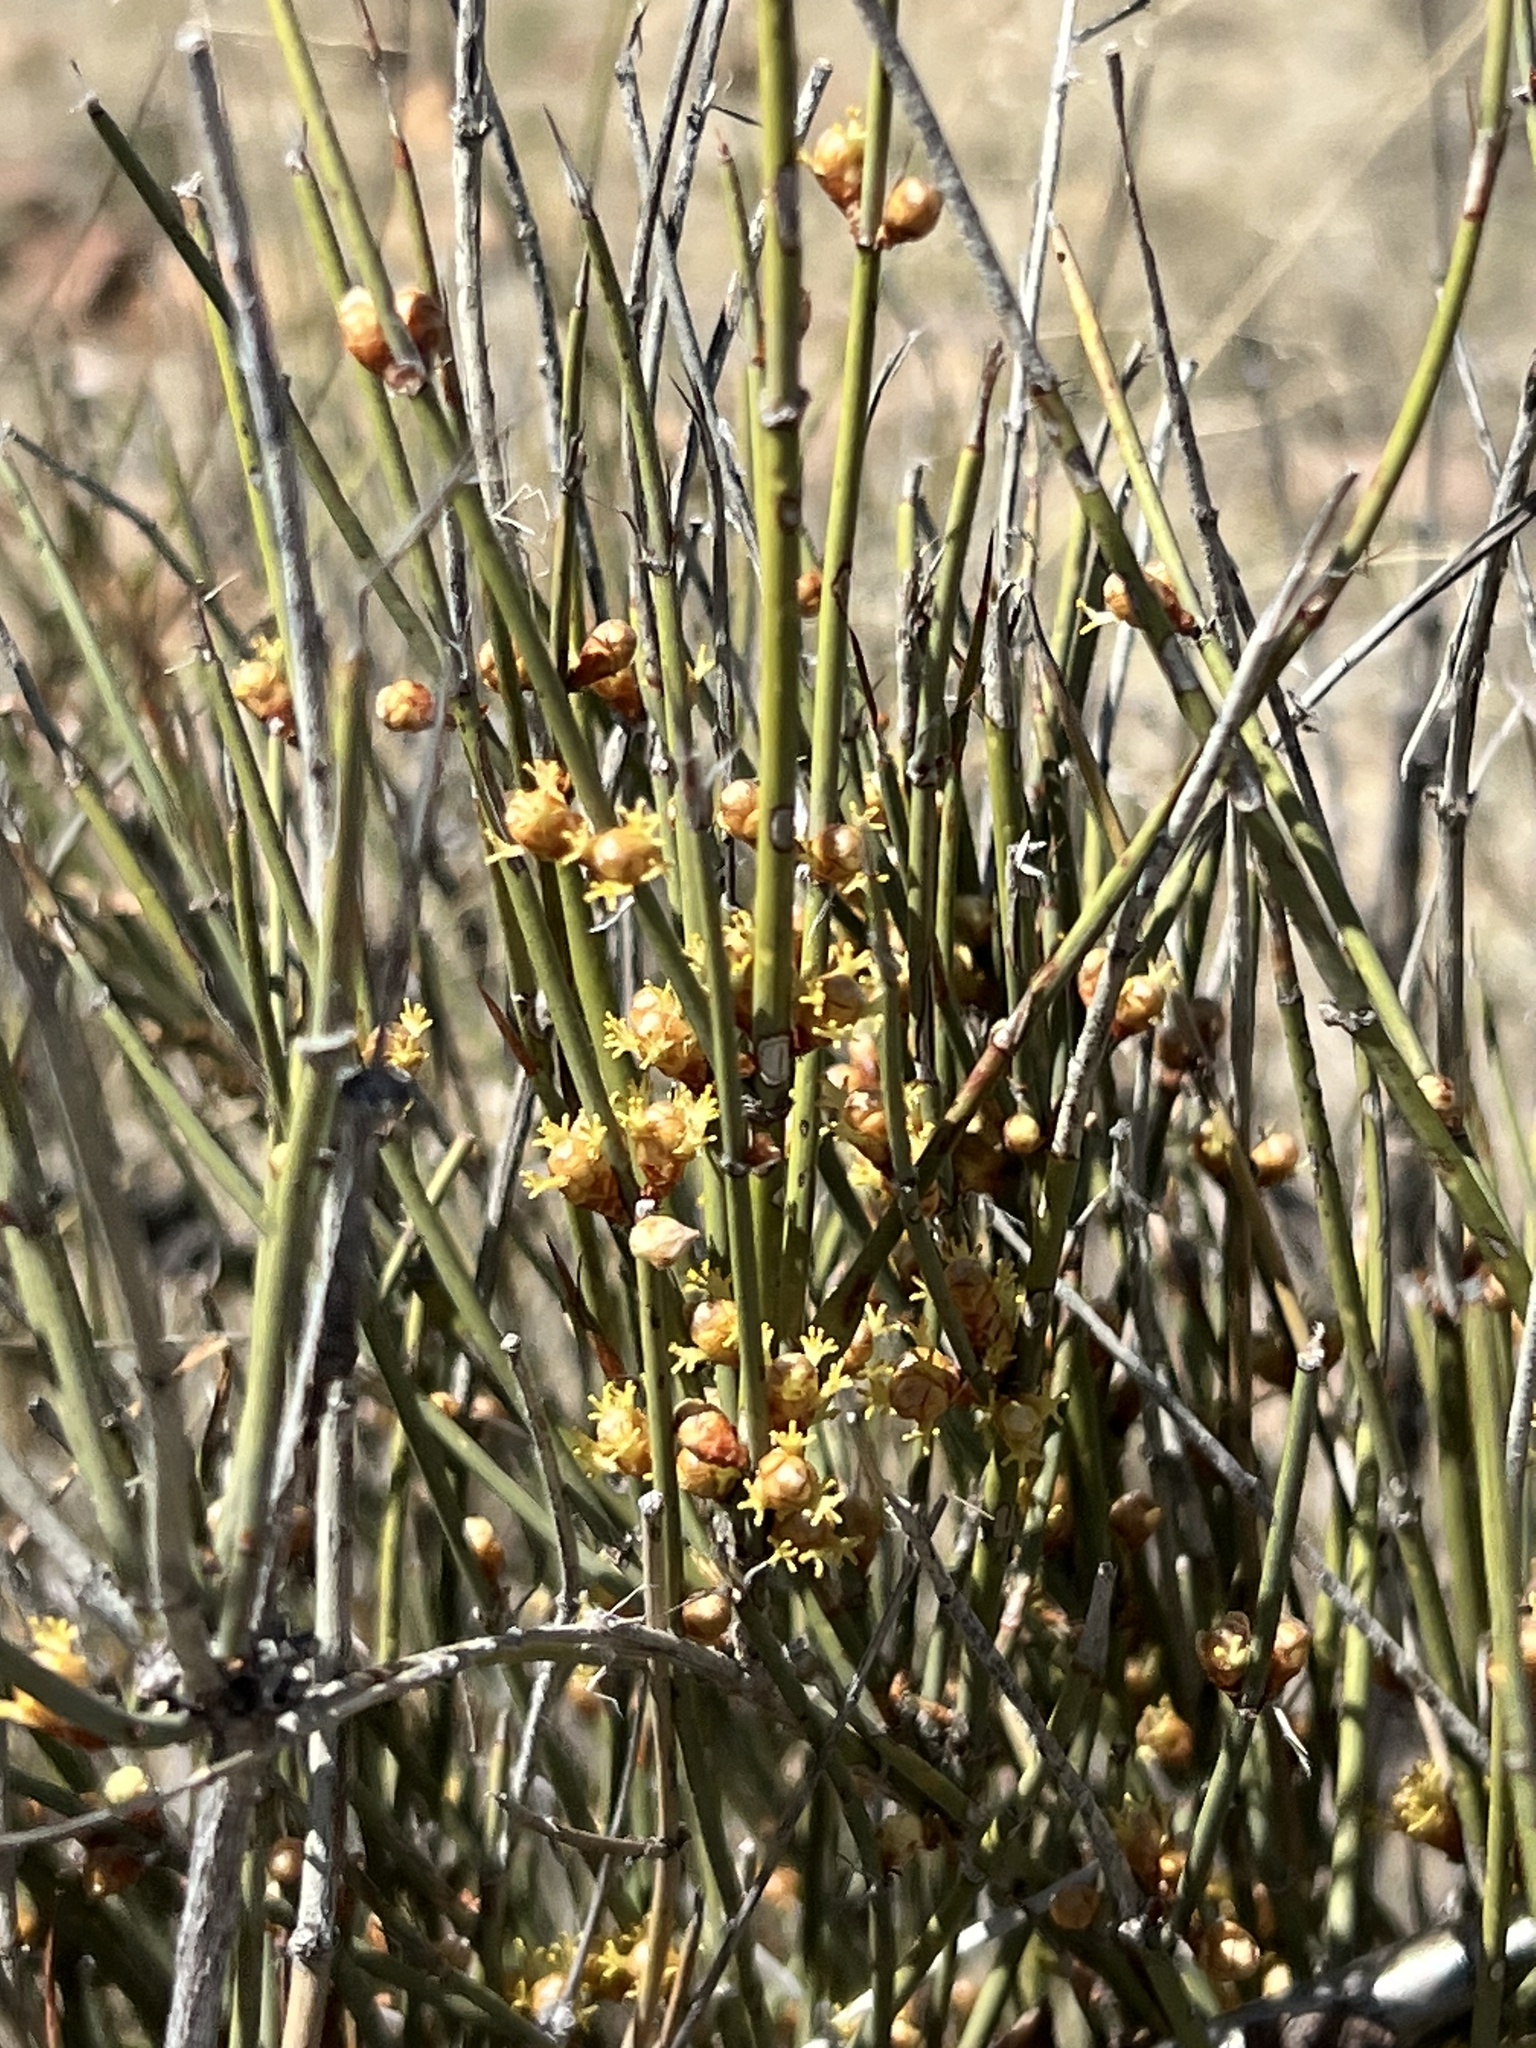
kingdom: Plantae
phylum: Tracheophyta
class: Gnetopsida
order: Ephedrales
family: Ephedraceae
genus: Ephedra
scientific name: Ephedra trifurca
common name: Mexican-tea
